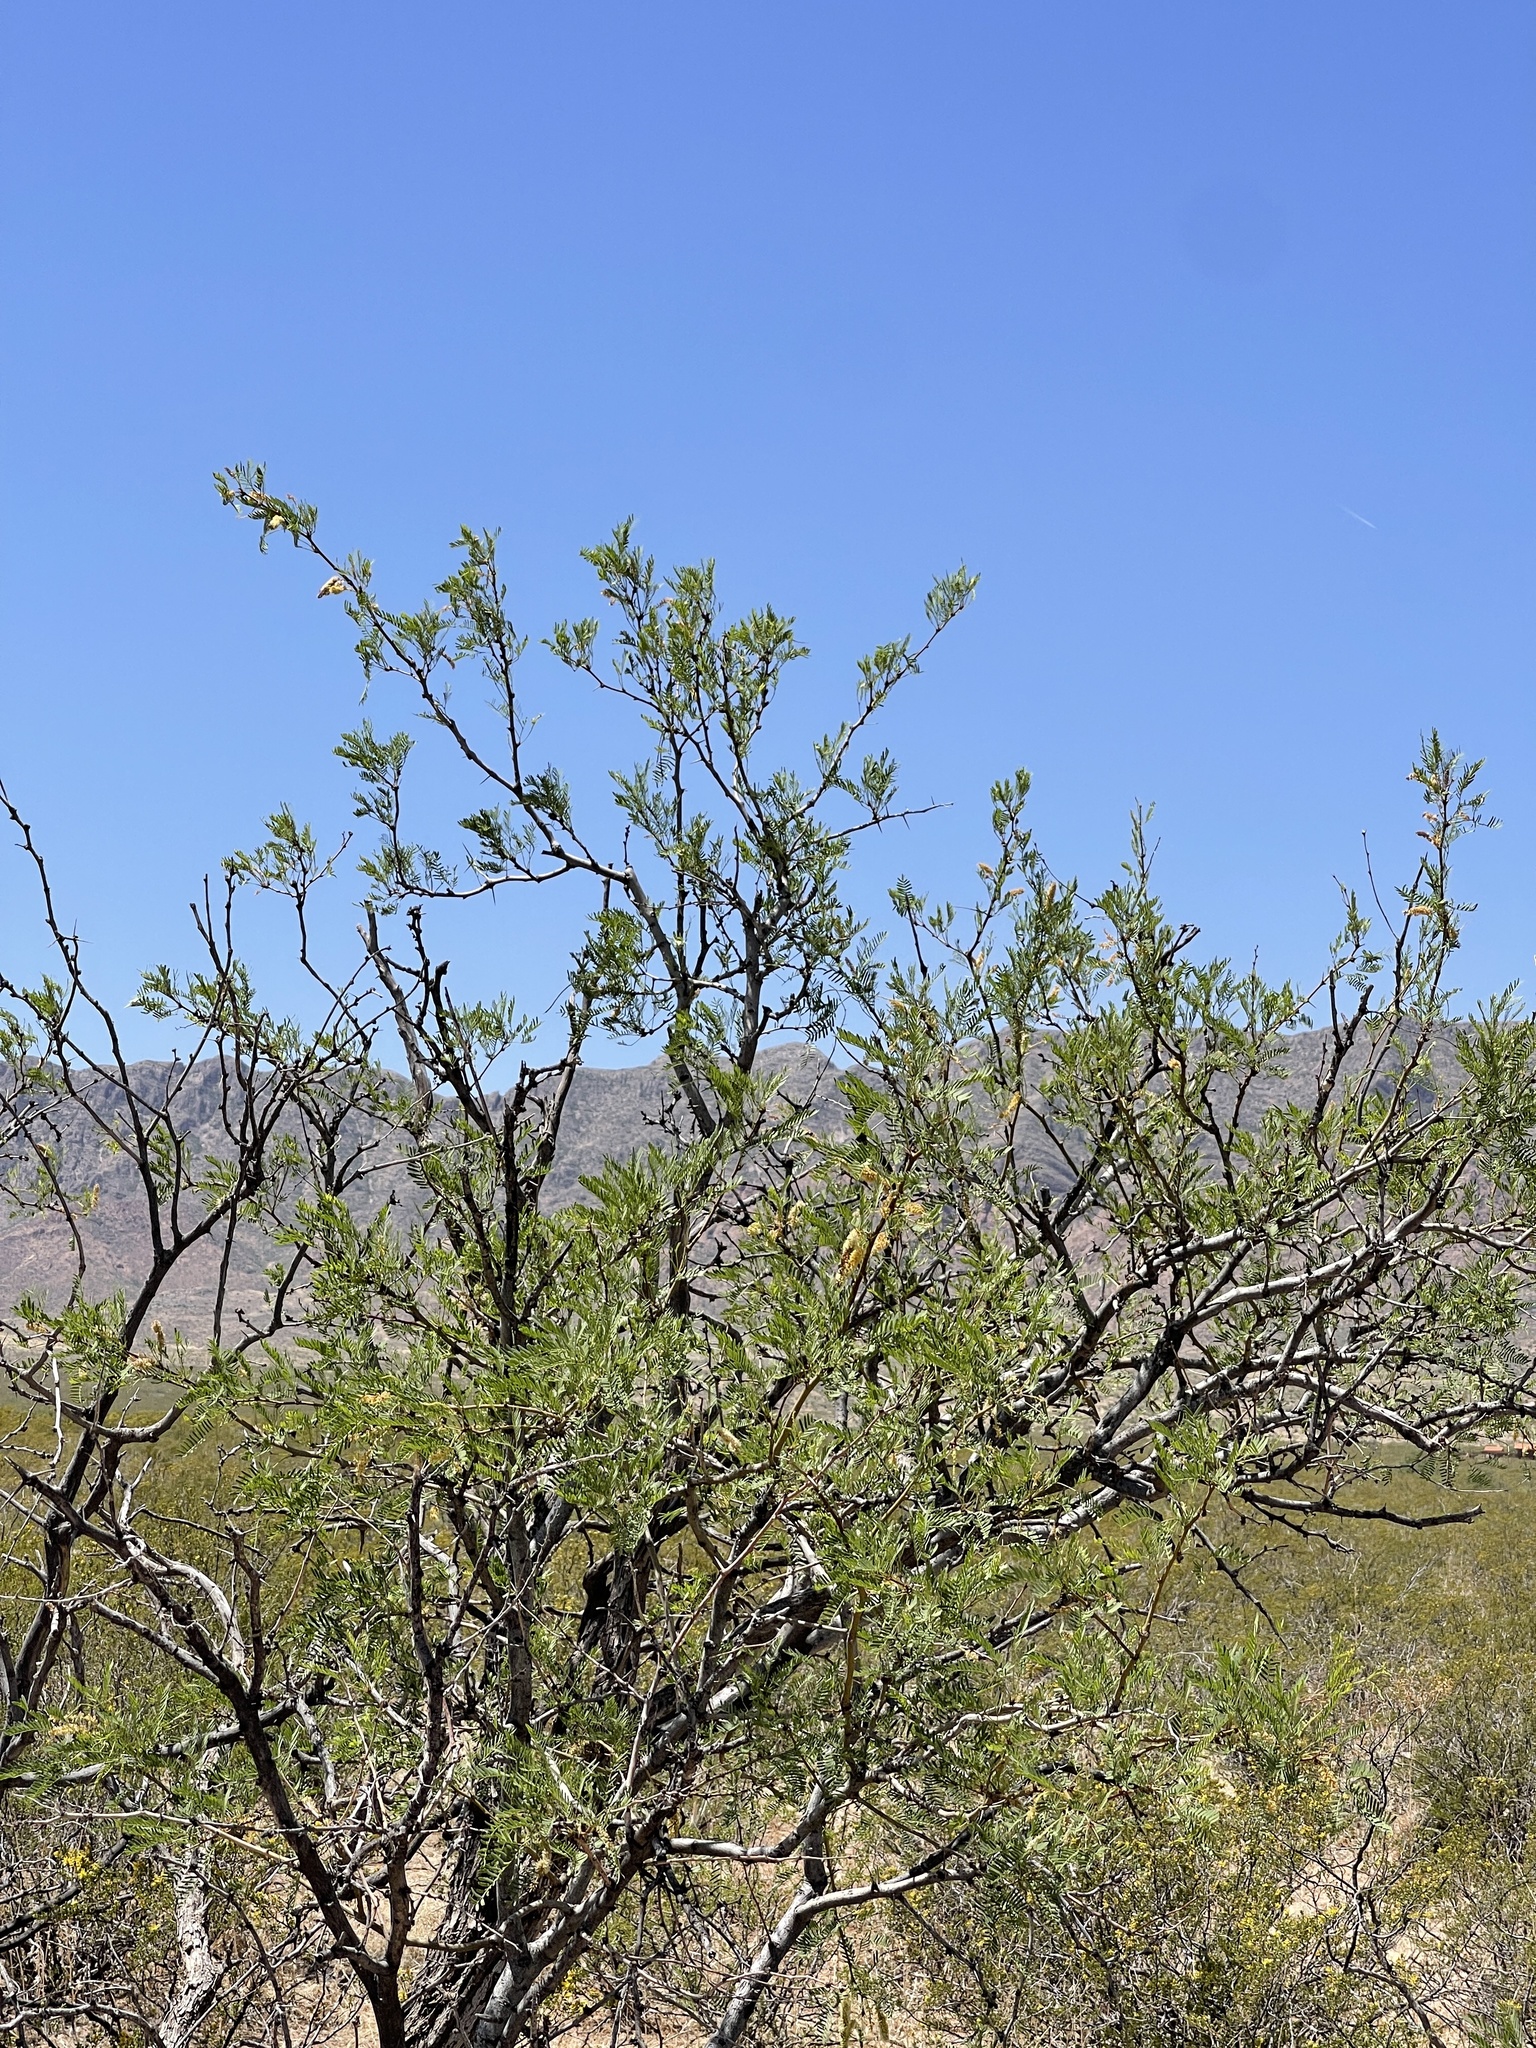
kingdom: Plantae
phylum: Tracheophyta
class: Magnoliopsida
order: Fabales
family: Fabaceae
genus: Prosopis
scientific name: Prosopis pubescens
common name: Screw-bean
